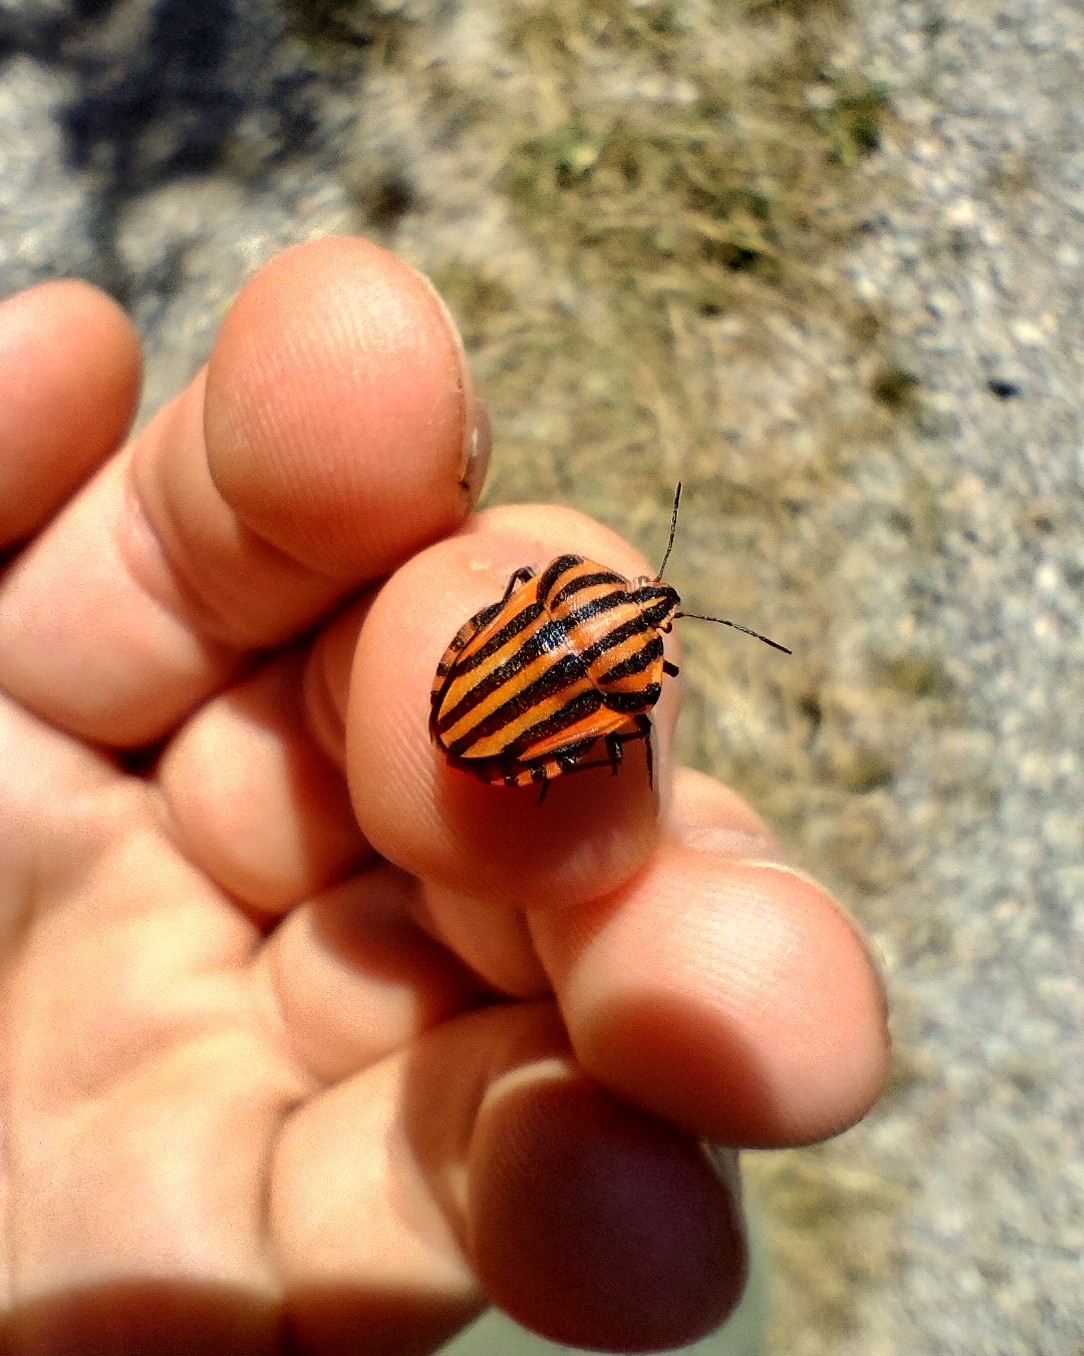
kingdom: Animalia
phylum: Arthropoda
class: Insecta
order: Hemiptera
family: Pentatomidae
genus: Graphosoma
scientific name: Graphosoma italicum
